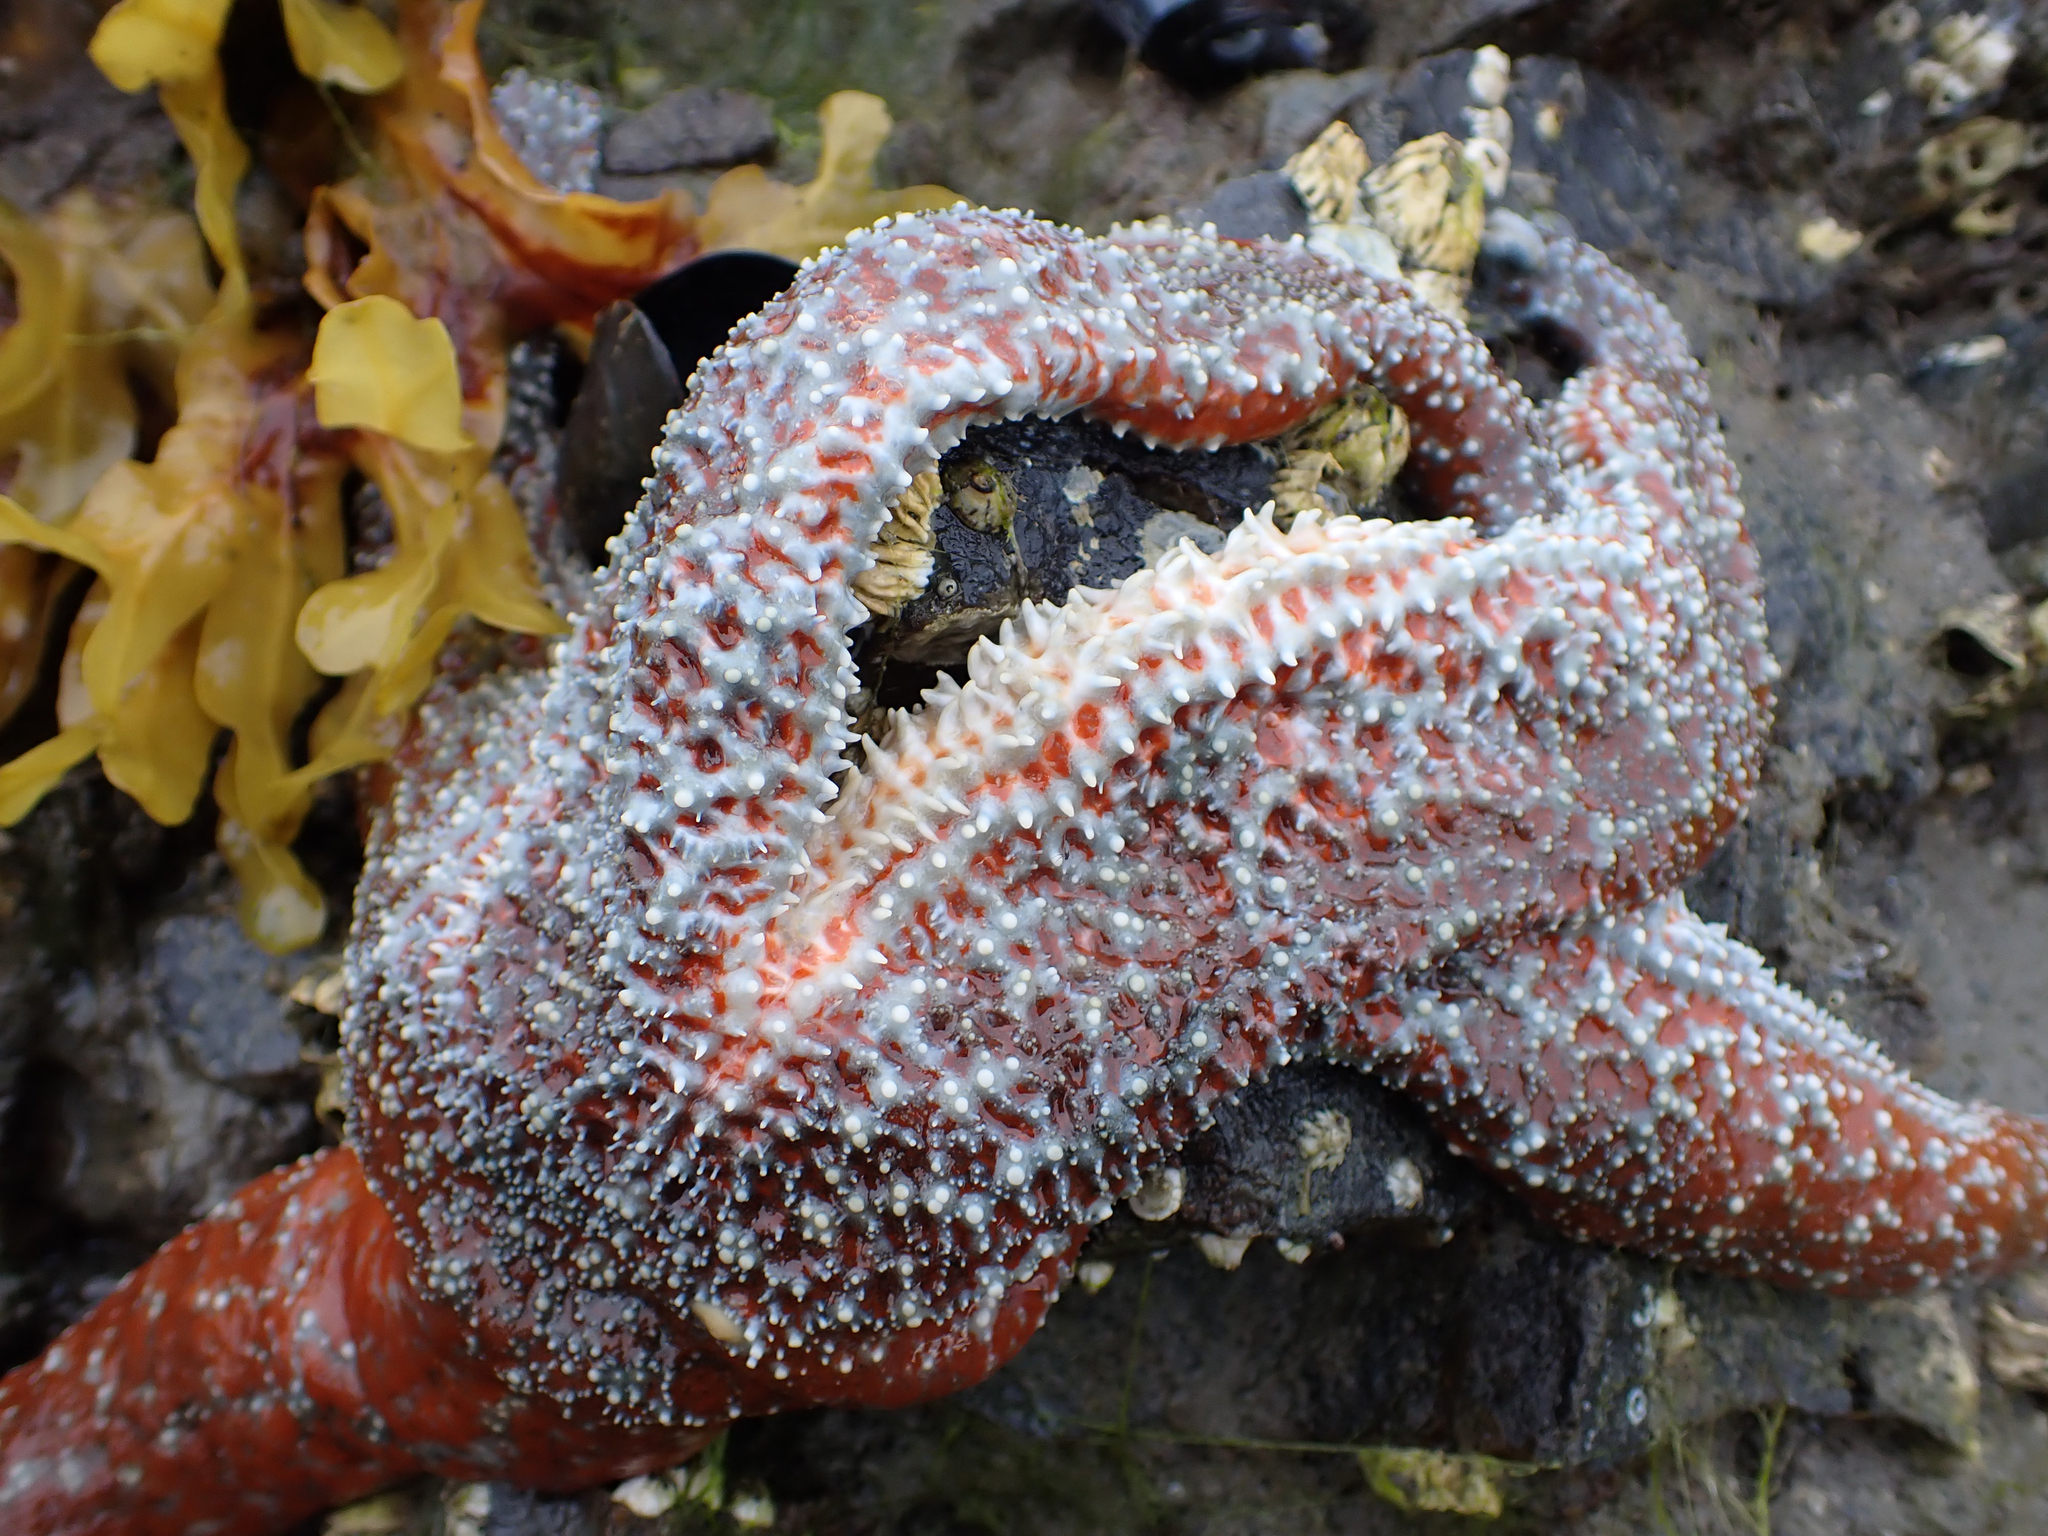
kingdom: Animalia
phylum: Echinodermata
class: Asteroidea
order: Forcipulatida
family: Asteriidae
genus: Evasterias
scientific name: Evasterias troschelii
